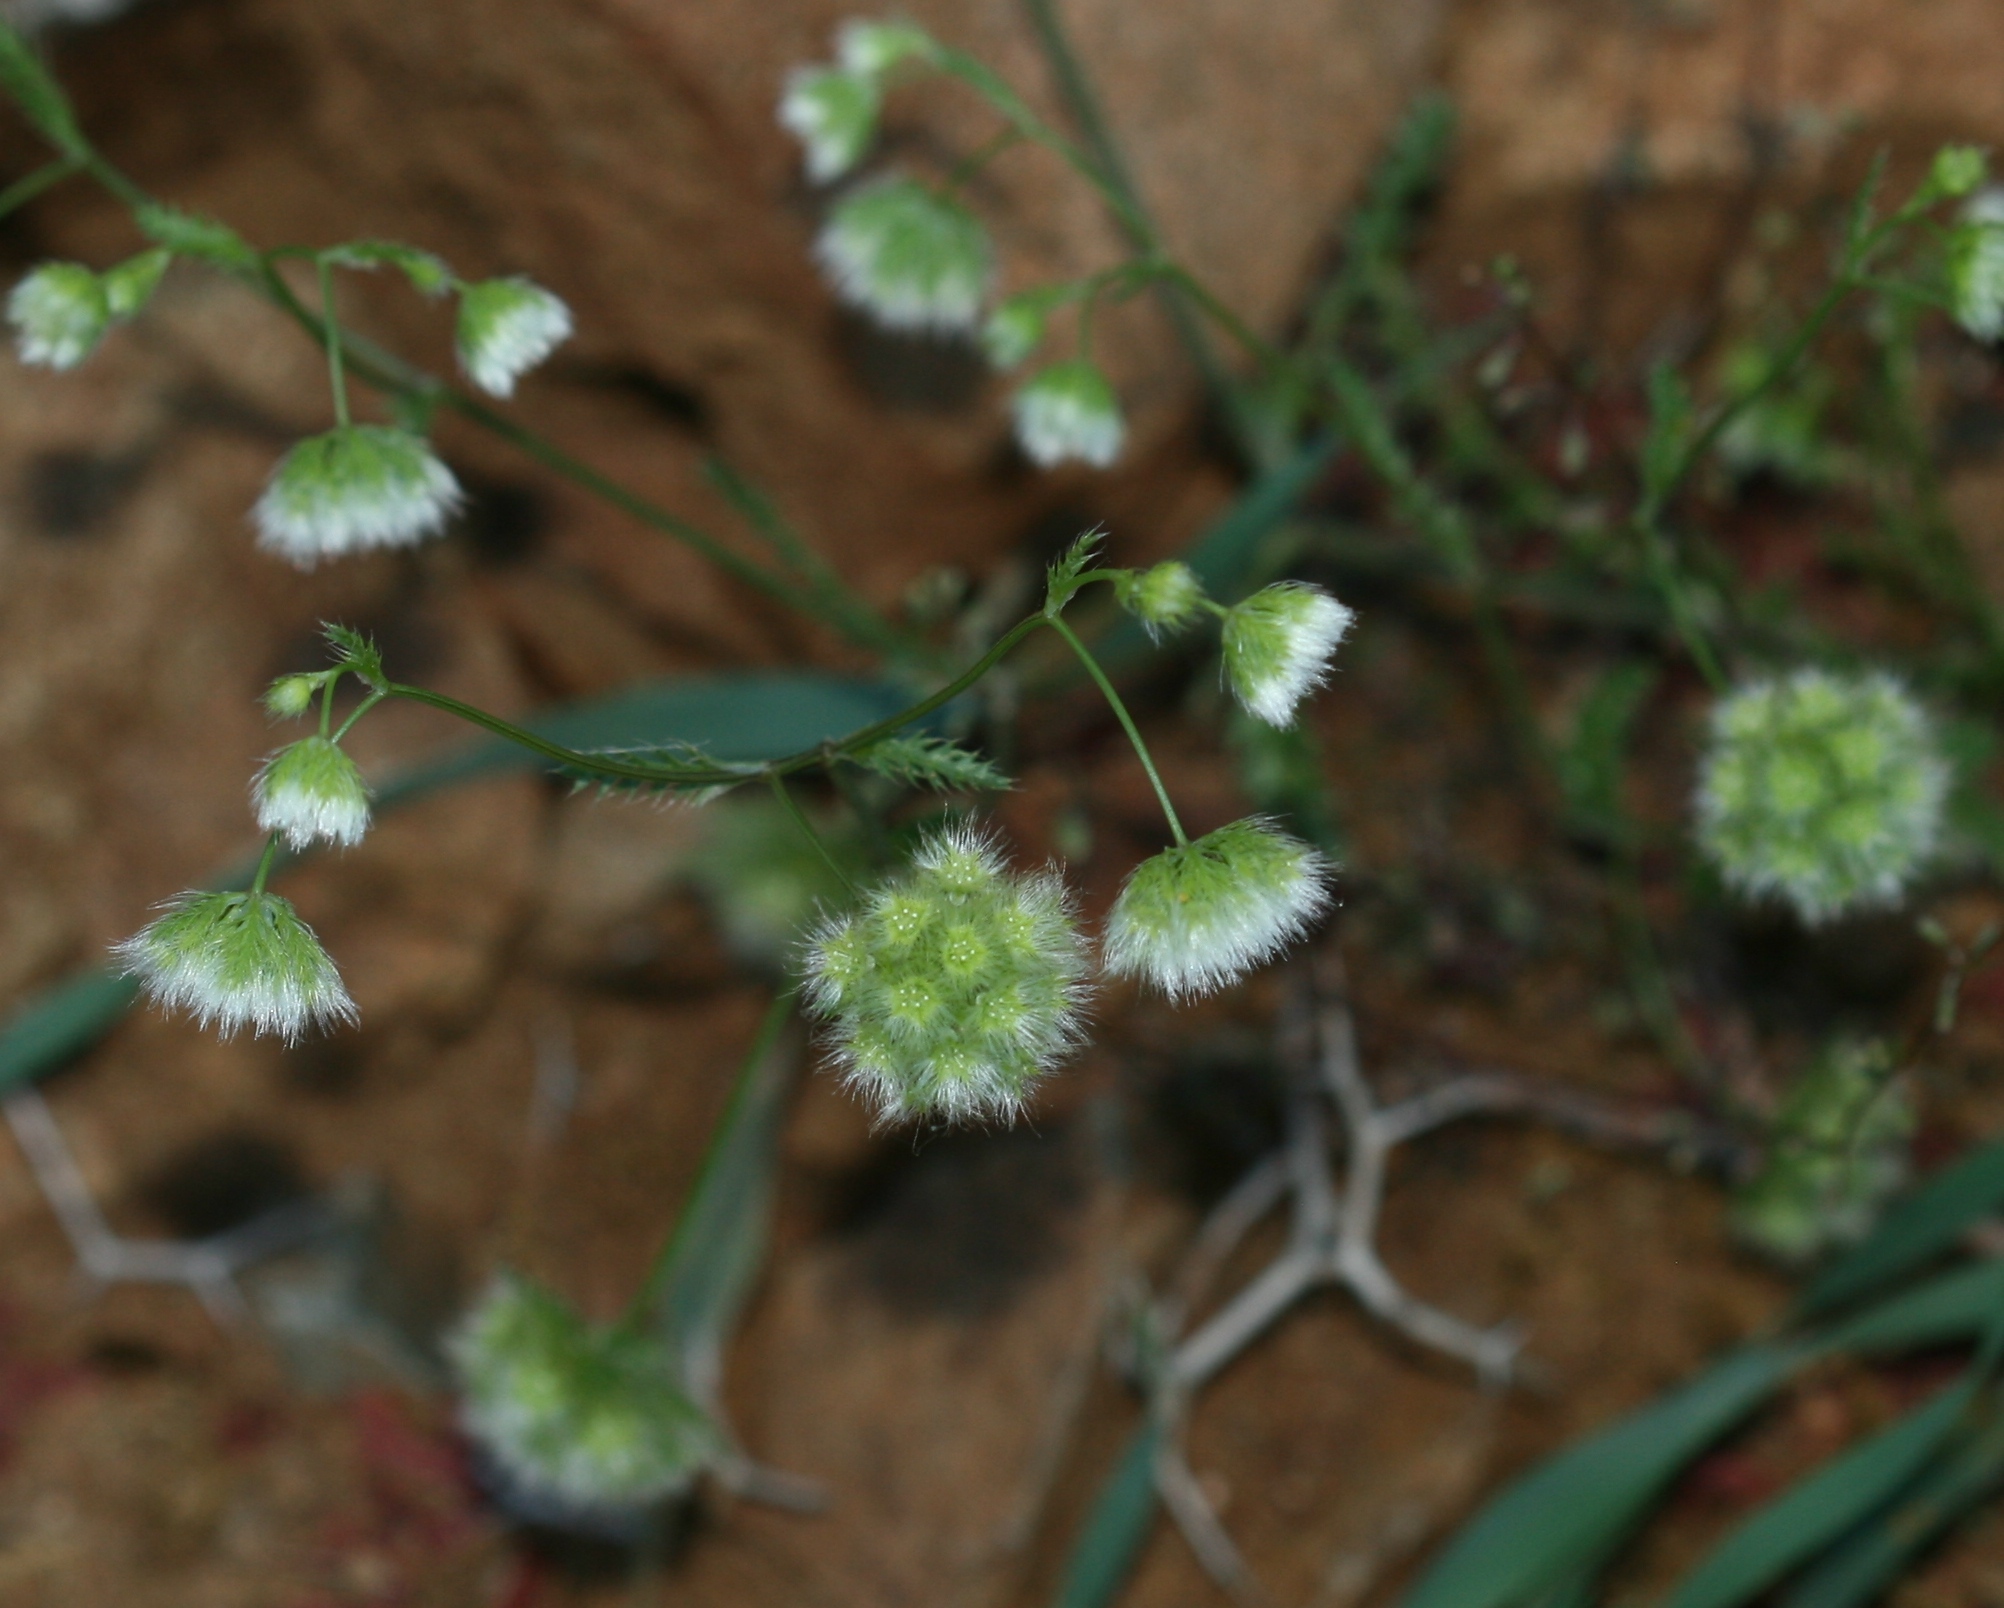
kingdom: Plantae
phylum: Tracheophyta
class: Magnoliopsida
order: Apiales
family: Apiaceae
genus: Lagoecia
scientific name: Lagoecia cuminoides
